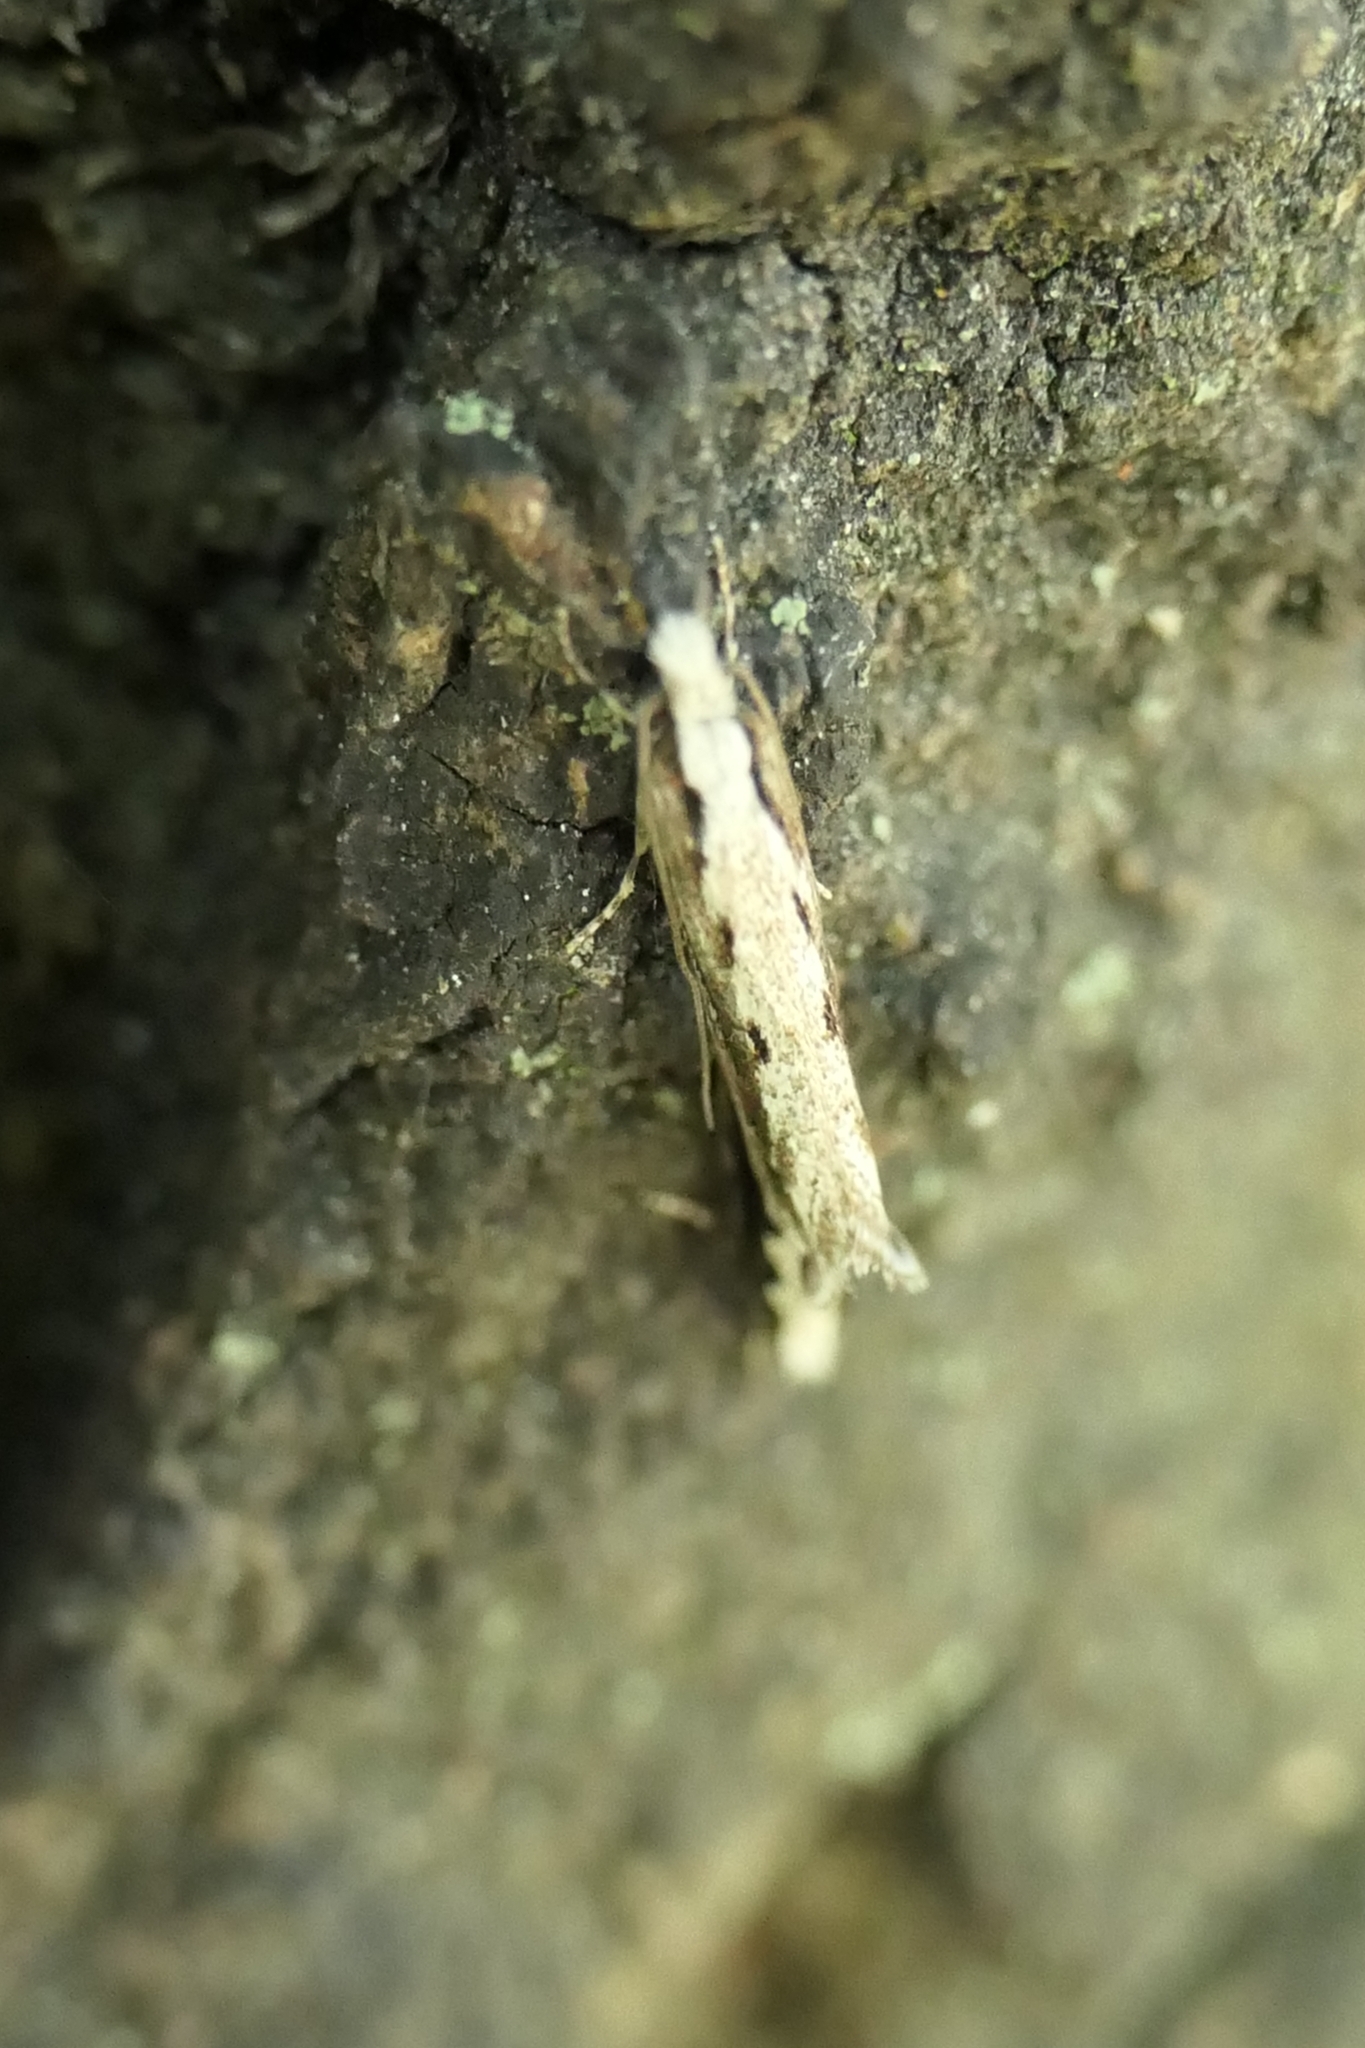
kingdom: Animalia
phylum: Arthropoda
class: Insecta
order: Lepidoptera
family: Tineidae
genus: Erechthias
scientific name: Erechthias fulguritella
